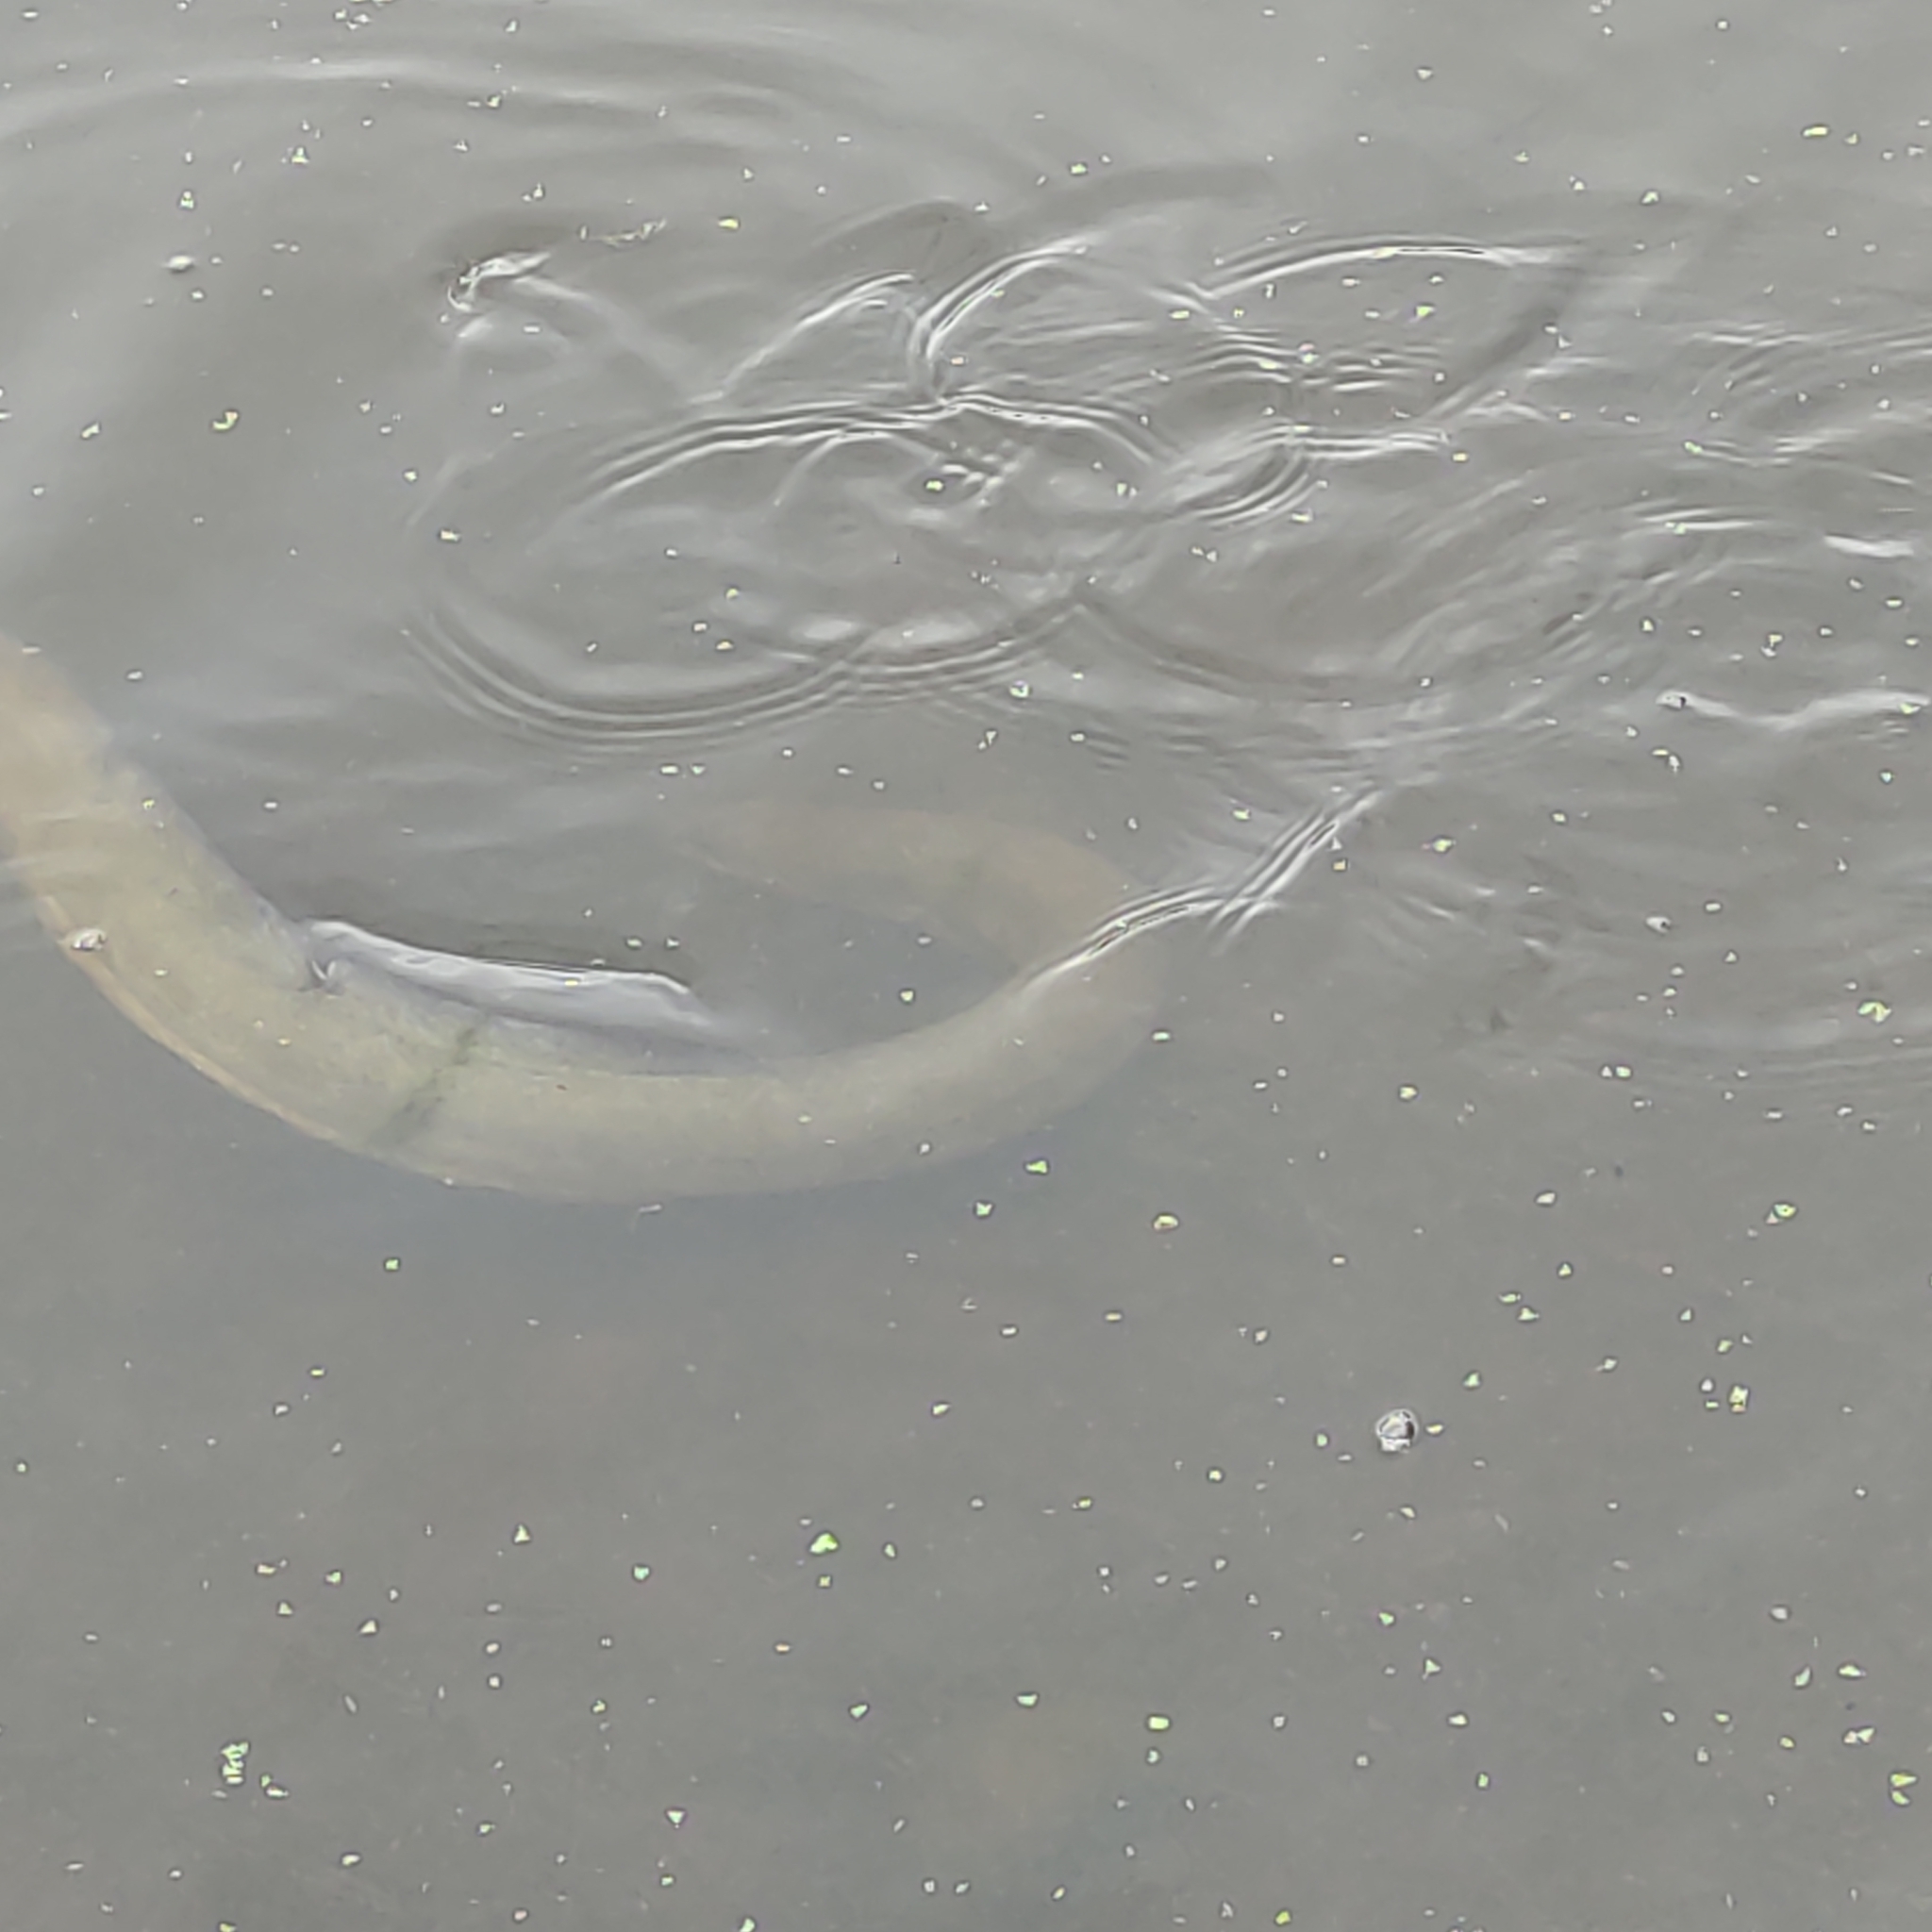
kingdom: Animalia
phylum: Chordata
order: Anguilliformes
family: Anguillidae
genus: Anguilla
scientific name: Anguilla australis
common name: Shortfin eel
